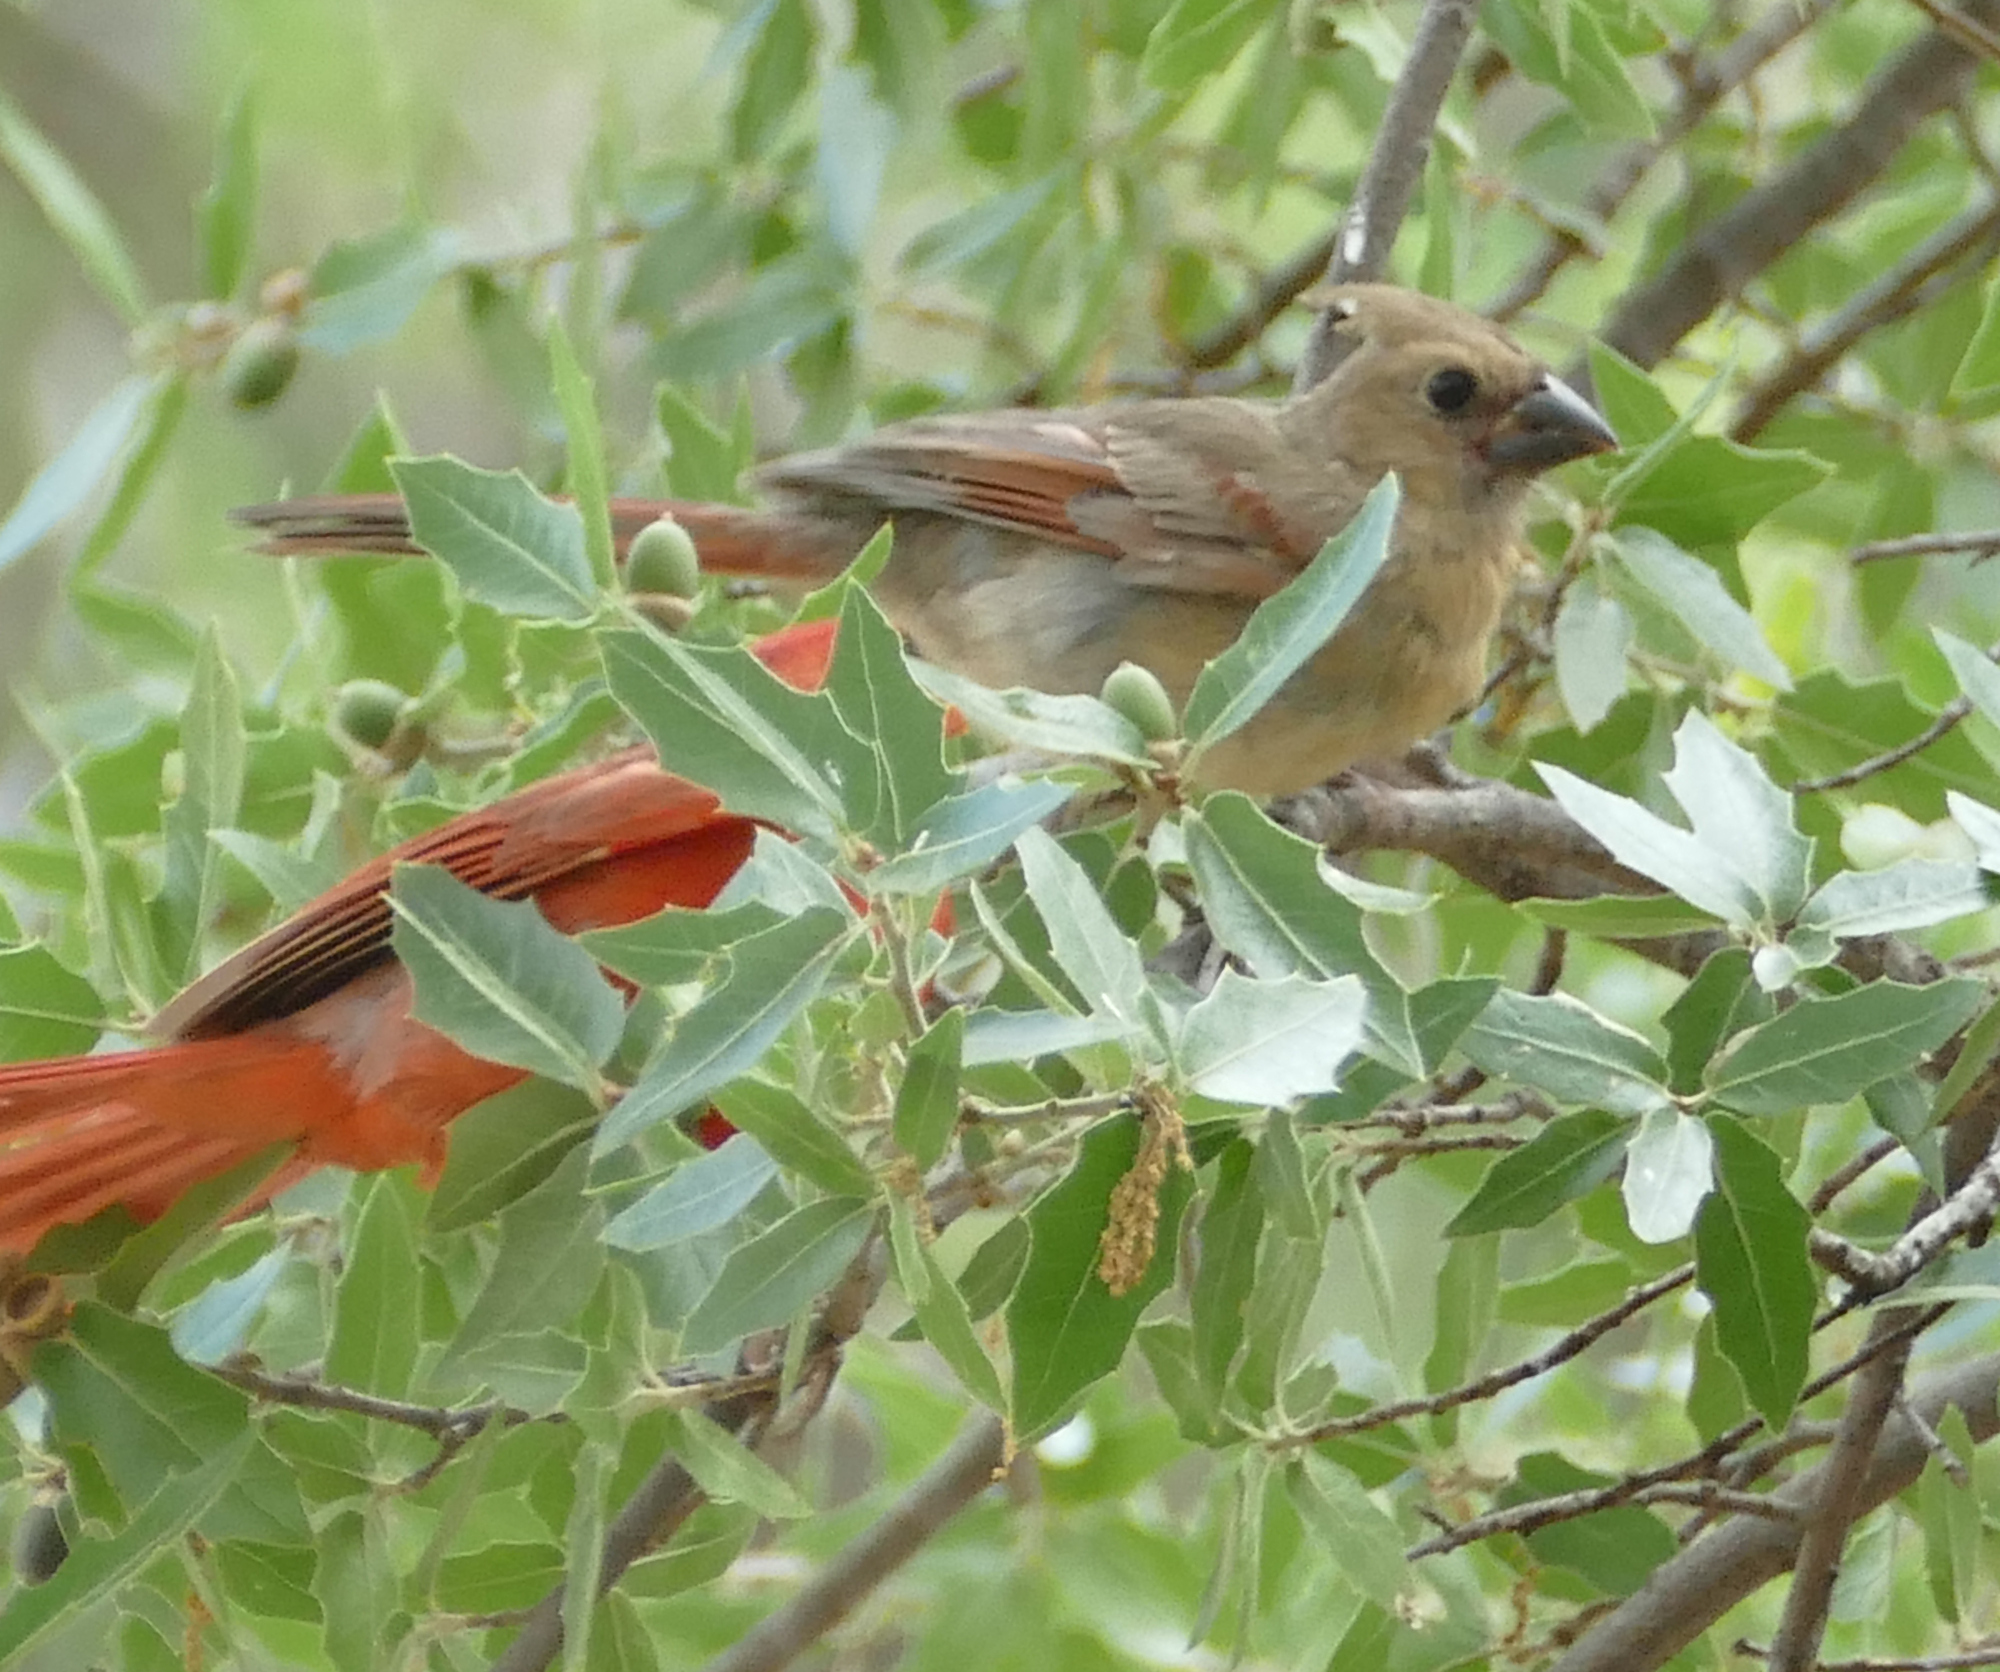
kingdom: Animalia
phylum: Chordata
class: Aves
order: Passeriformes
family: Cardinalidae
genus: Cardinalis
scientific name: Cardinalis cardinalis
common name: Northern cardinal
